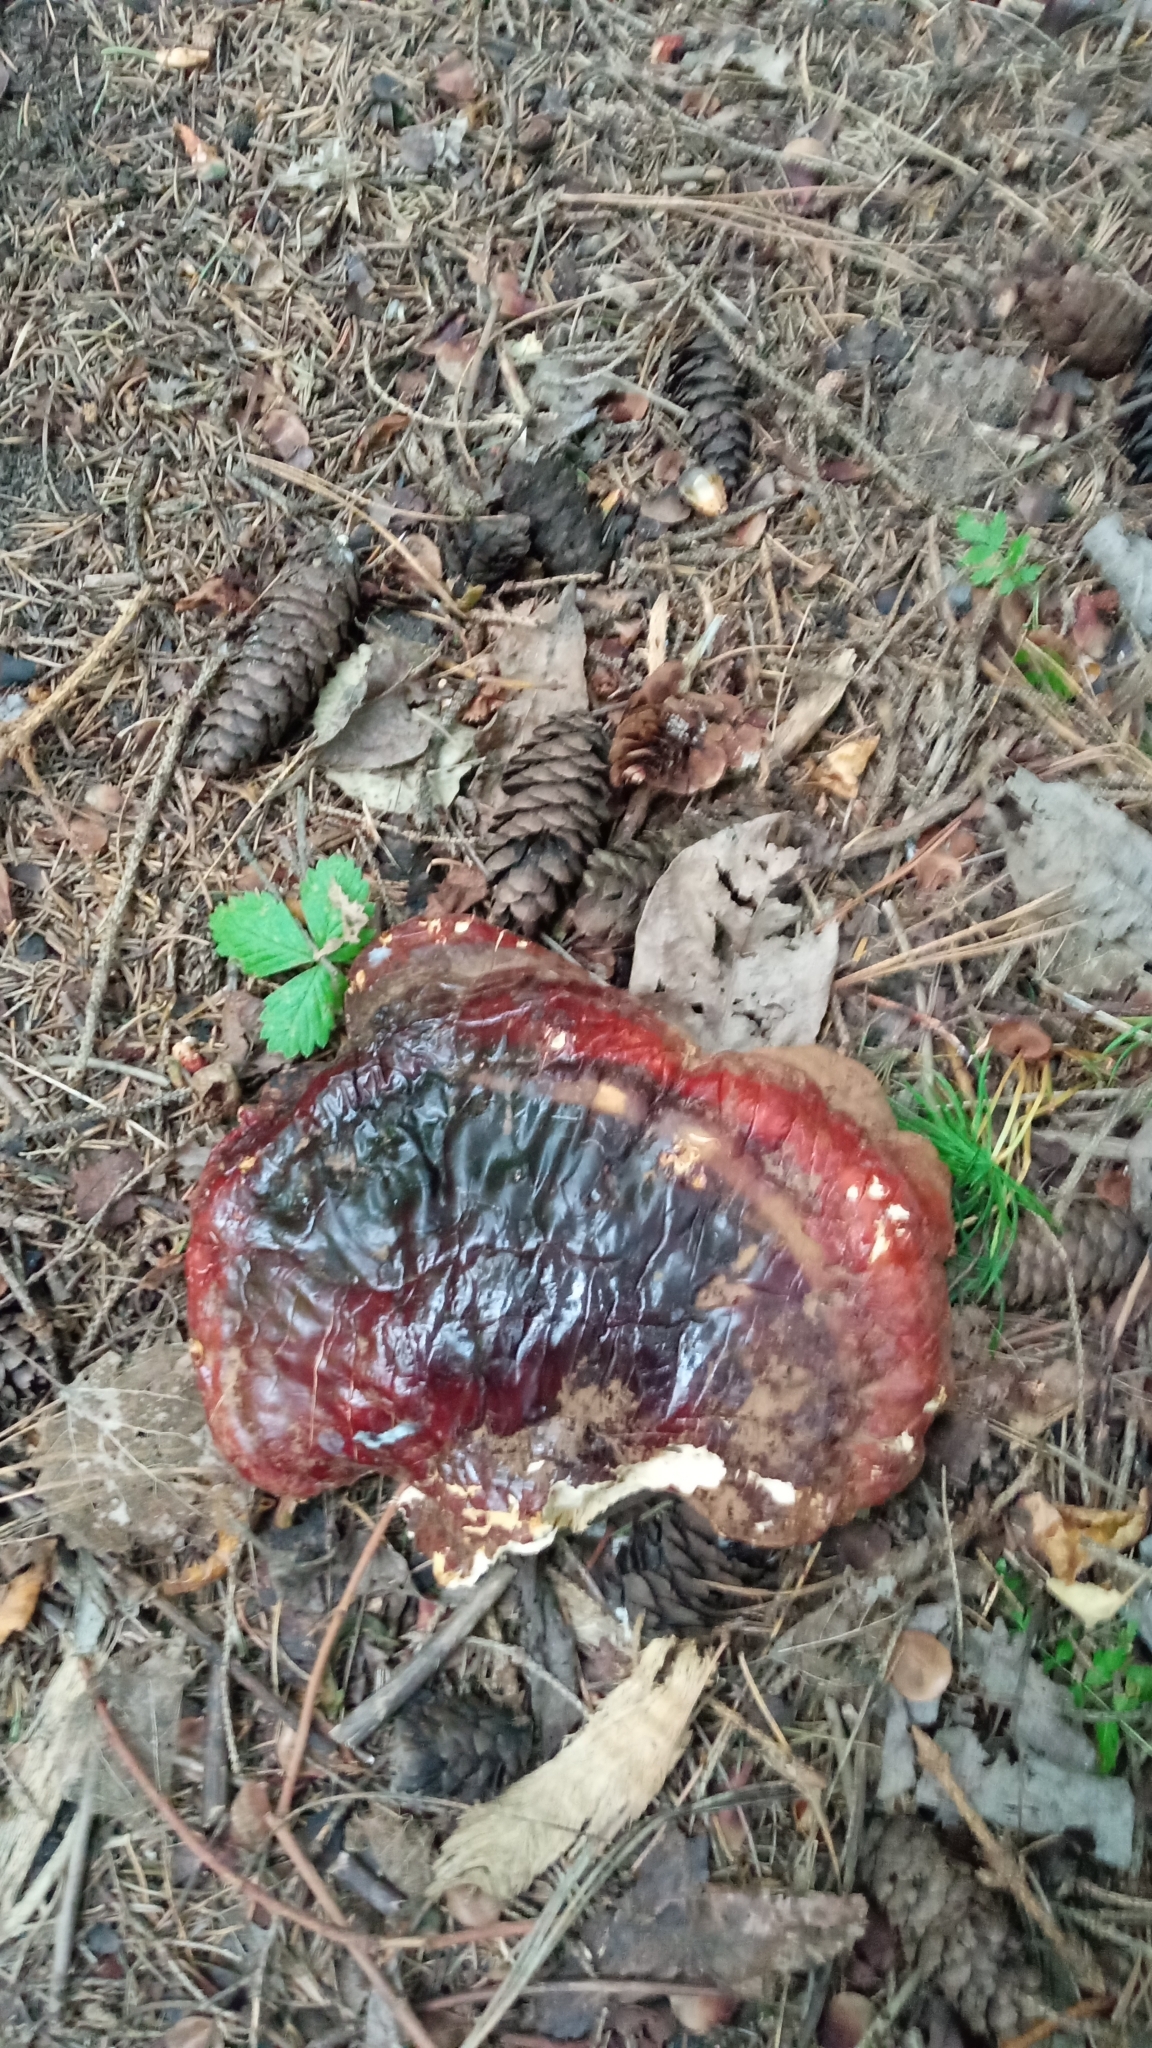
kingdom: Fungi
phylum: Basidiomycota
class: Agaricomycetes
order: Polyporales
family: Polyporaceae
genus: Ganoderma
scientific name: Ganoderma lucidum
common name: Lacquered bracket
